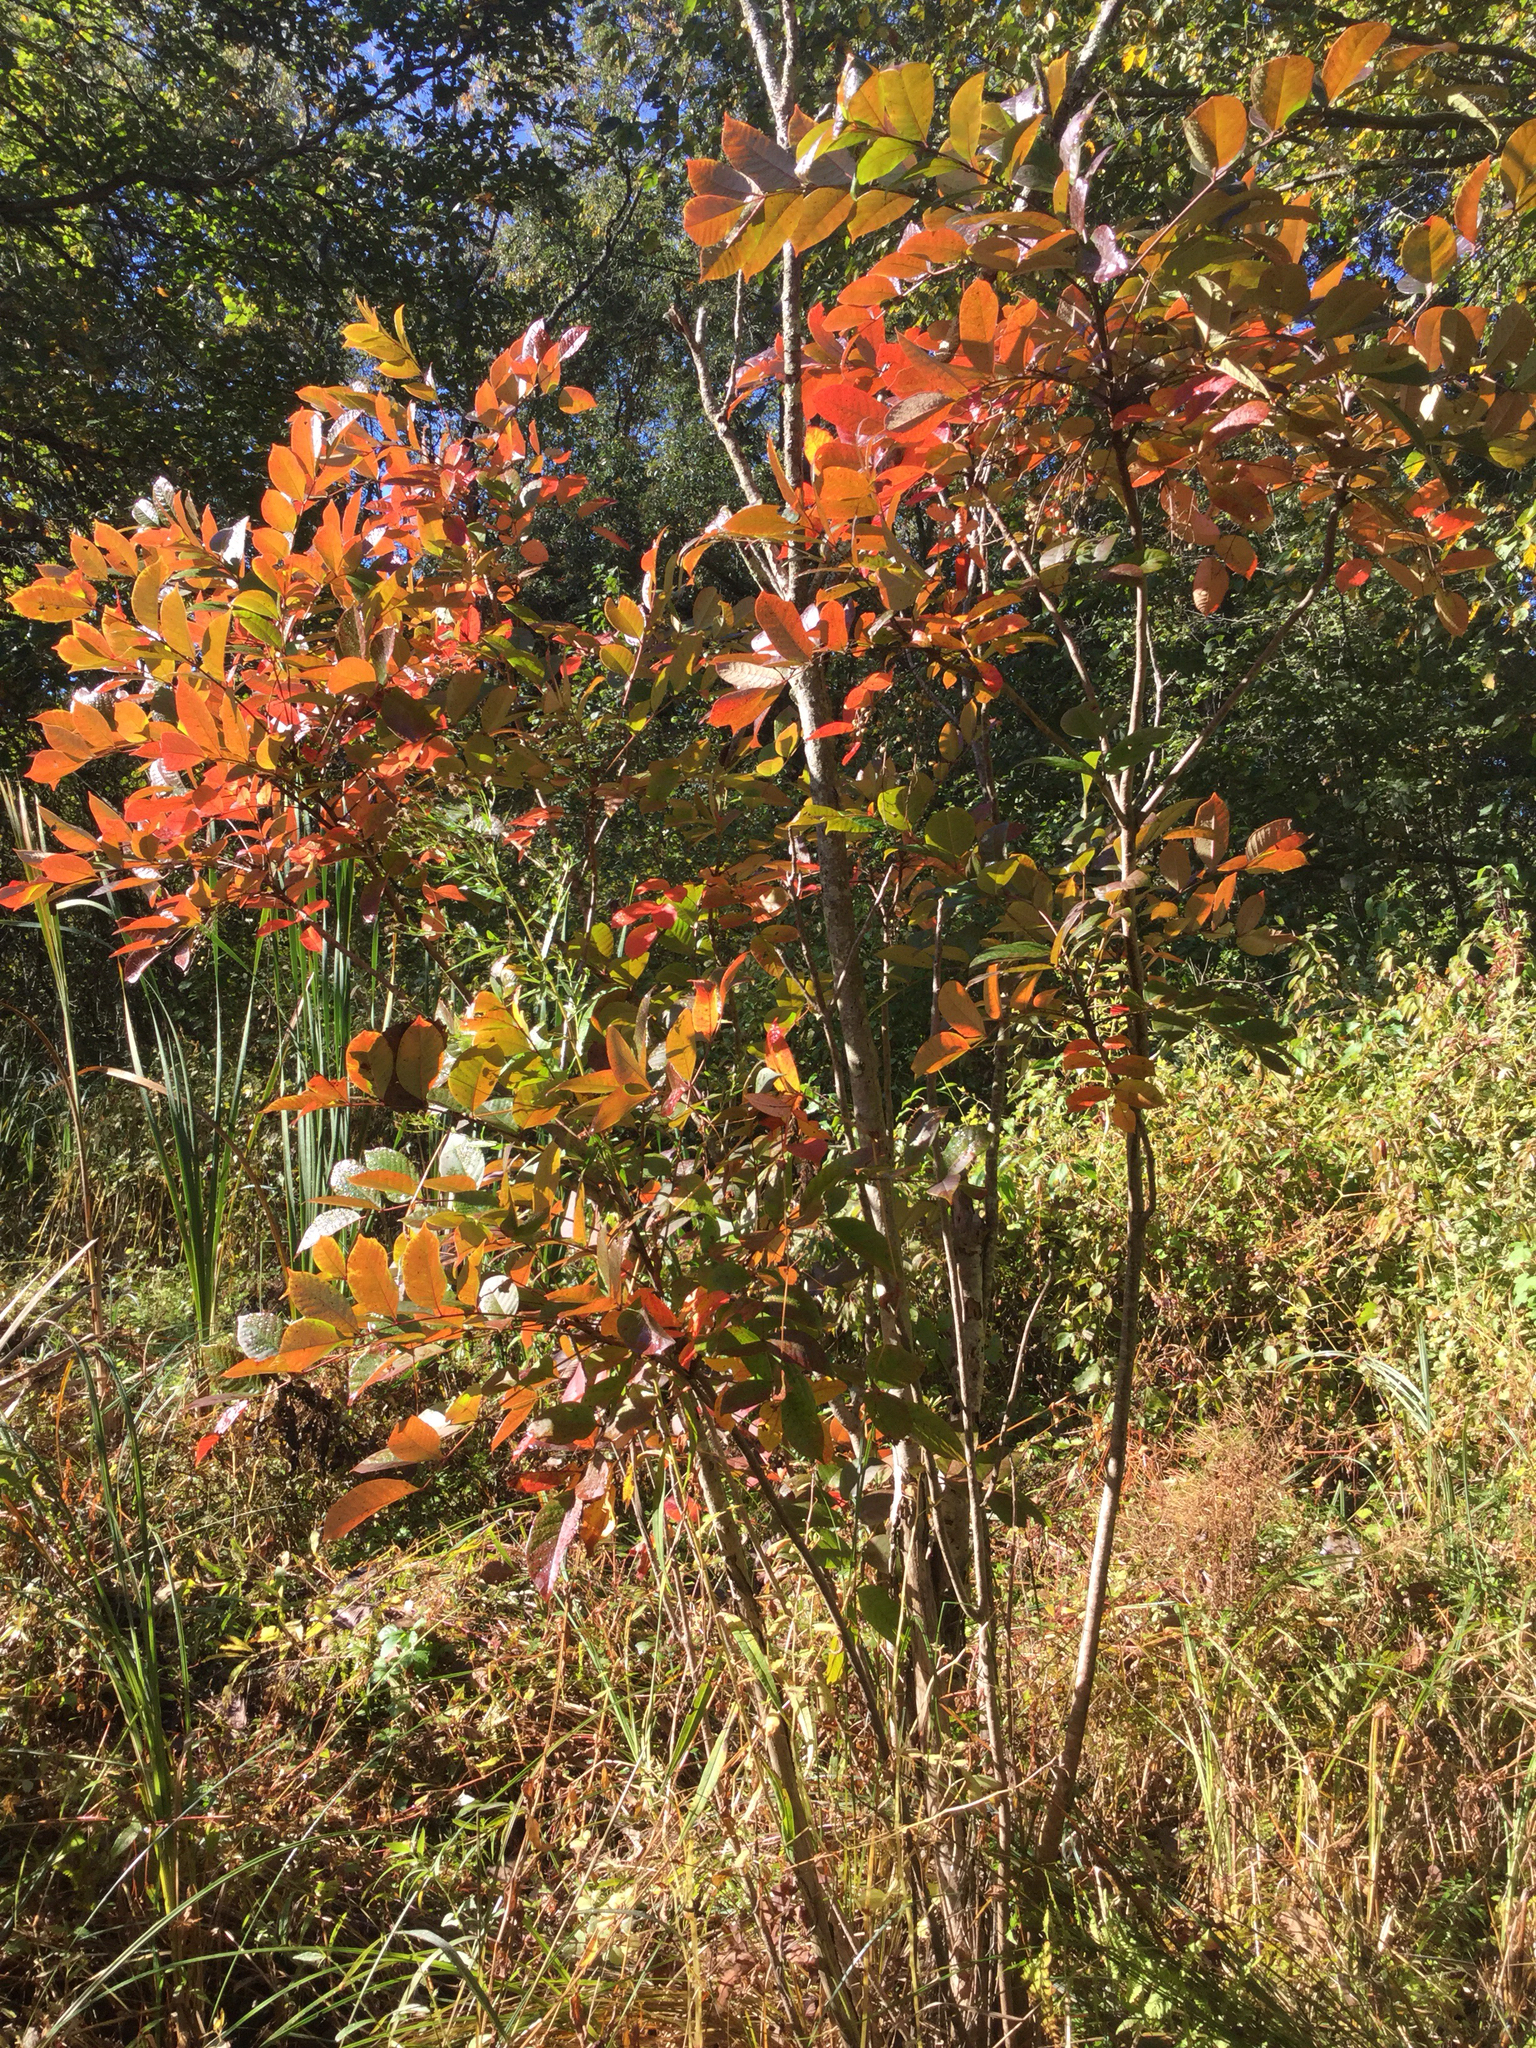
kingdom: Plantae
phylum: Tracheophyta
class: Magnoliopsida
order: Sapindales
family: Anacardiaceae
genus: Toxicodendron
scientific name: Toxicodendron vernix
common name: Poison sumac
